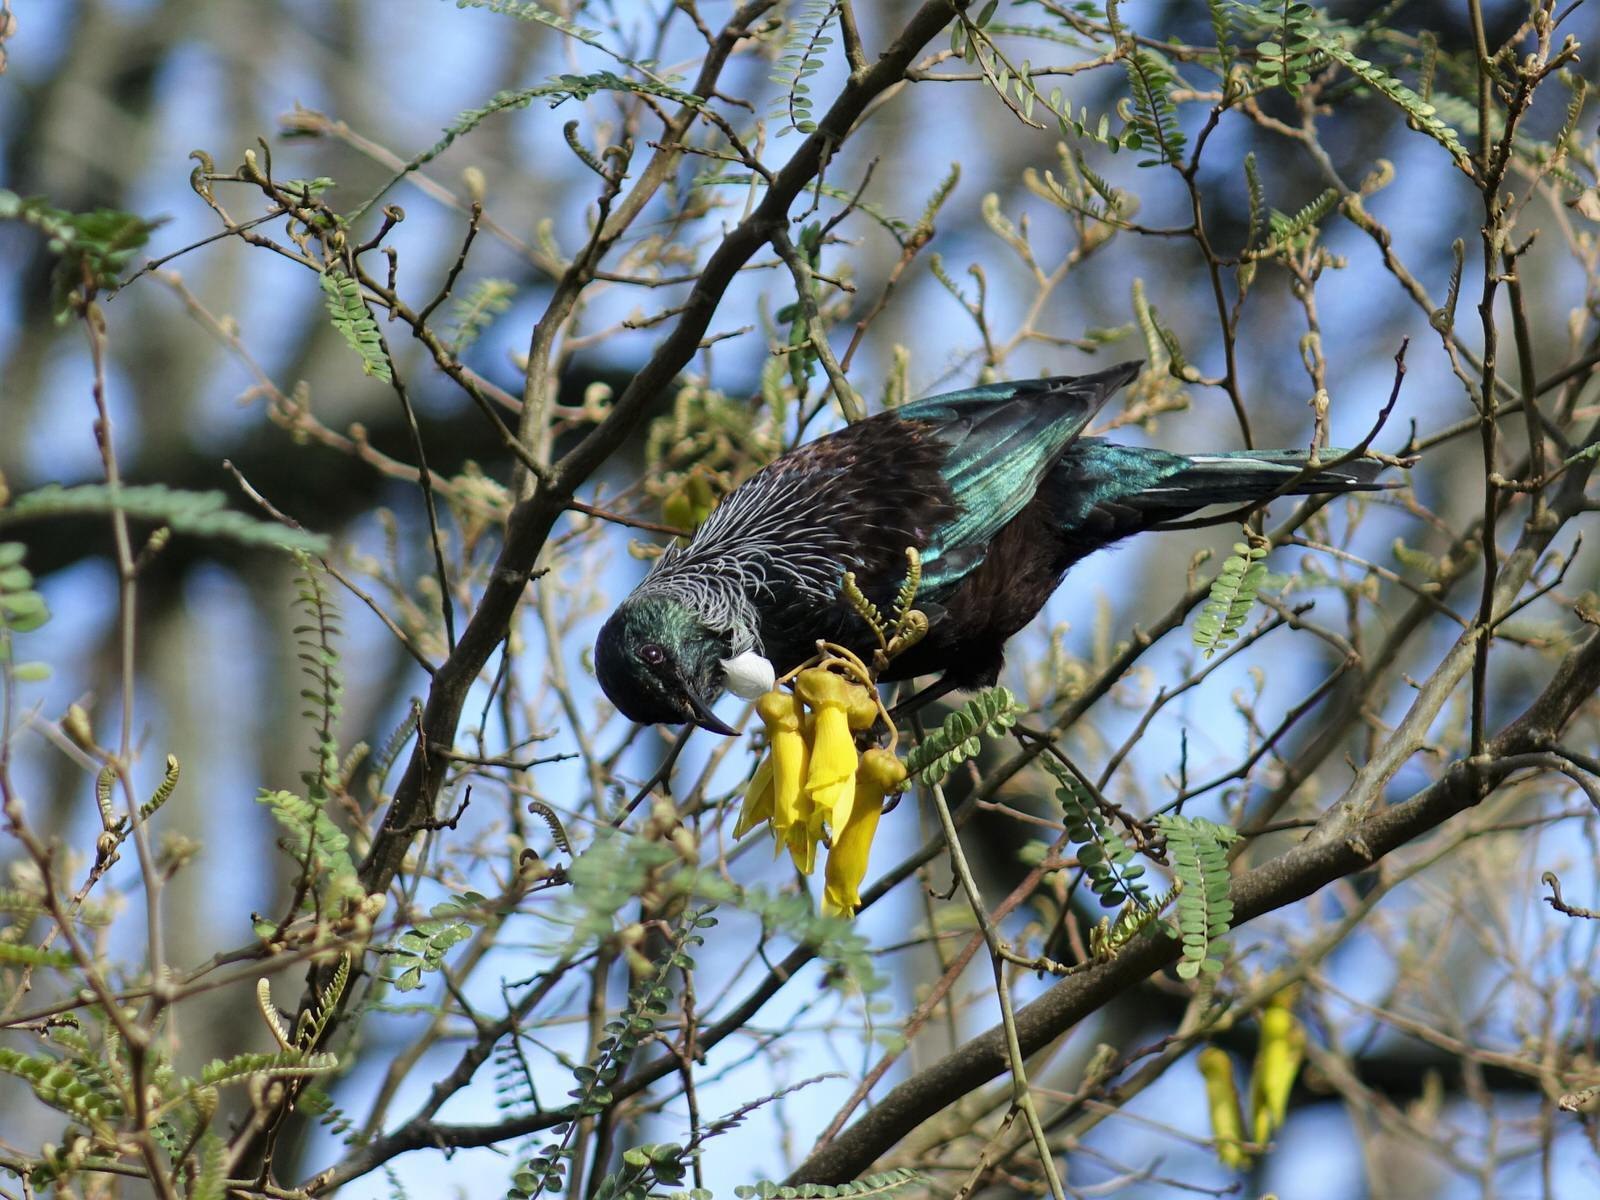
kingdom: Animalia
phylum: Chordata
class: Aves
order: Passeriformes
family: Meliphagidae
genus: Prosthemadera
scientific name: Prosthemadera novaeseelandiae
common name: Tui
